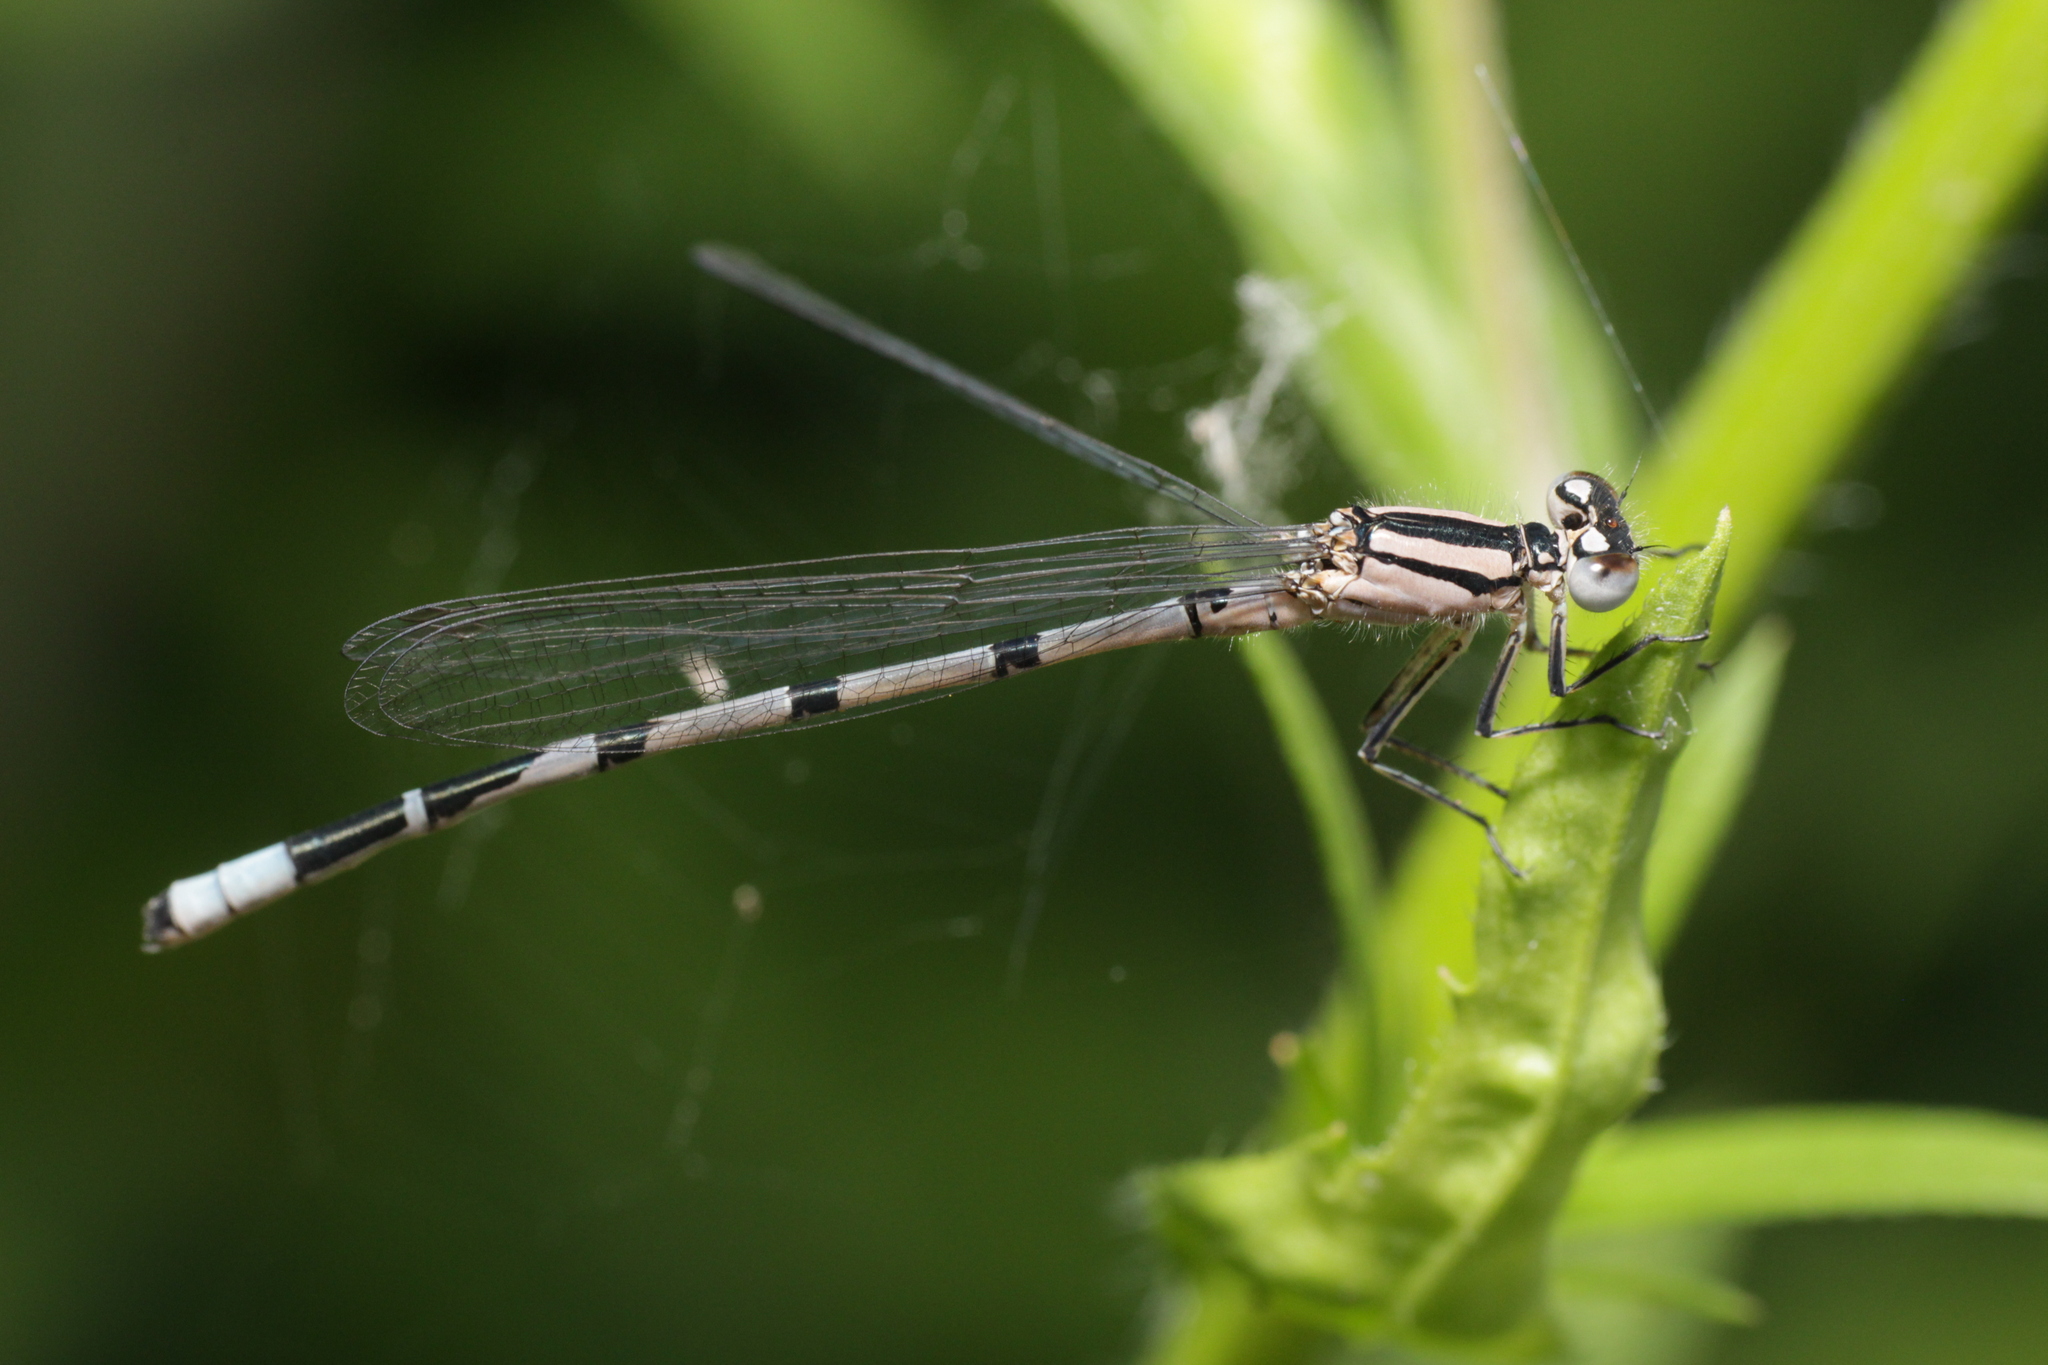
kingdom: Animalia
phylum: Arthropoda
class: Insecta
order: Odonata
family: Coenagrionidae
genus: Enallagma
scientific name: Enallagma cyathigerum
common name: Common blue damselfly
